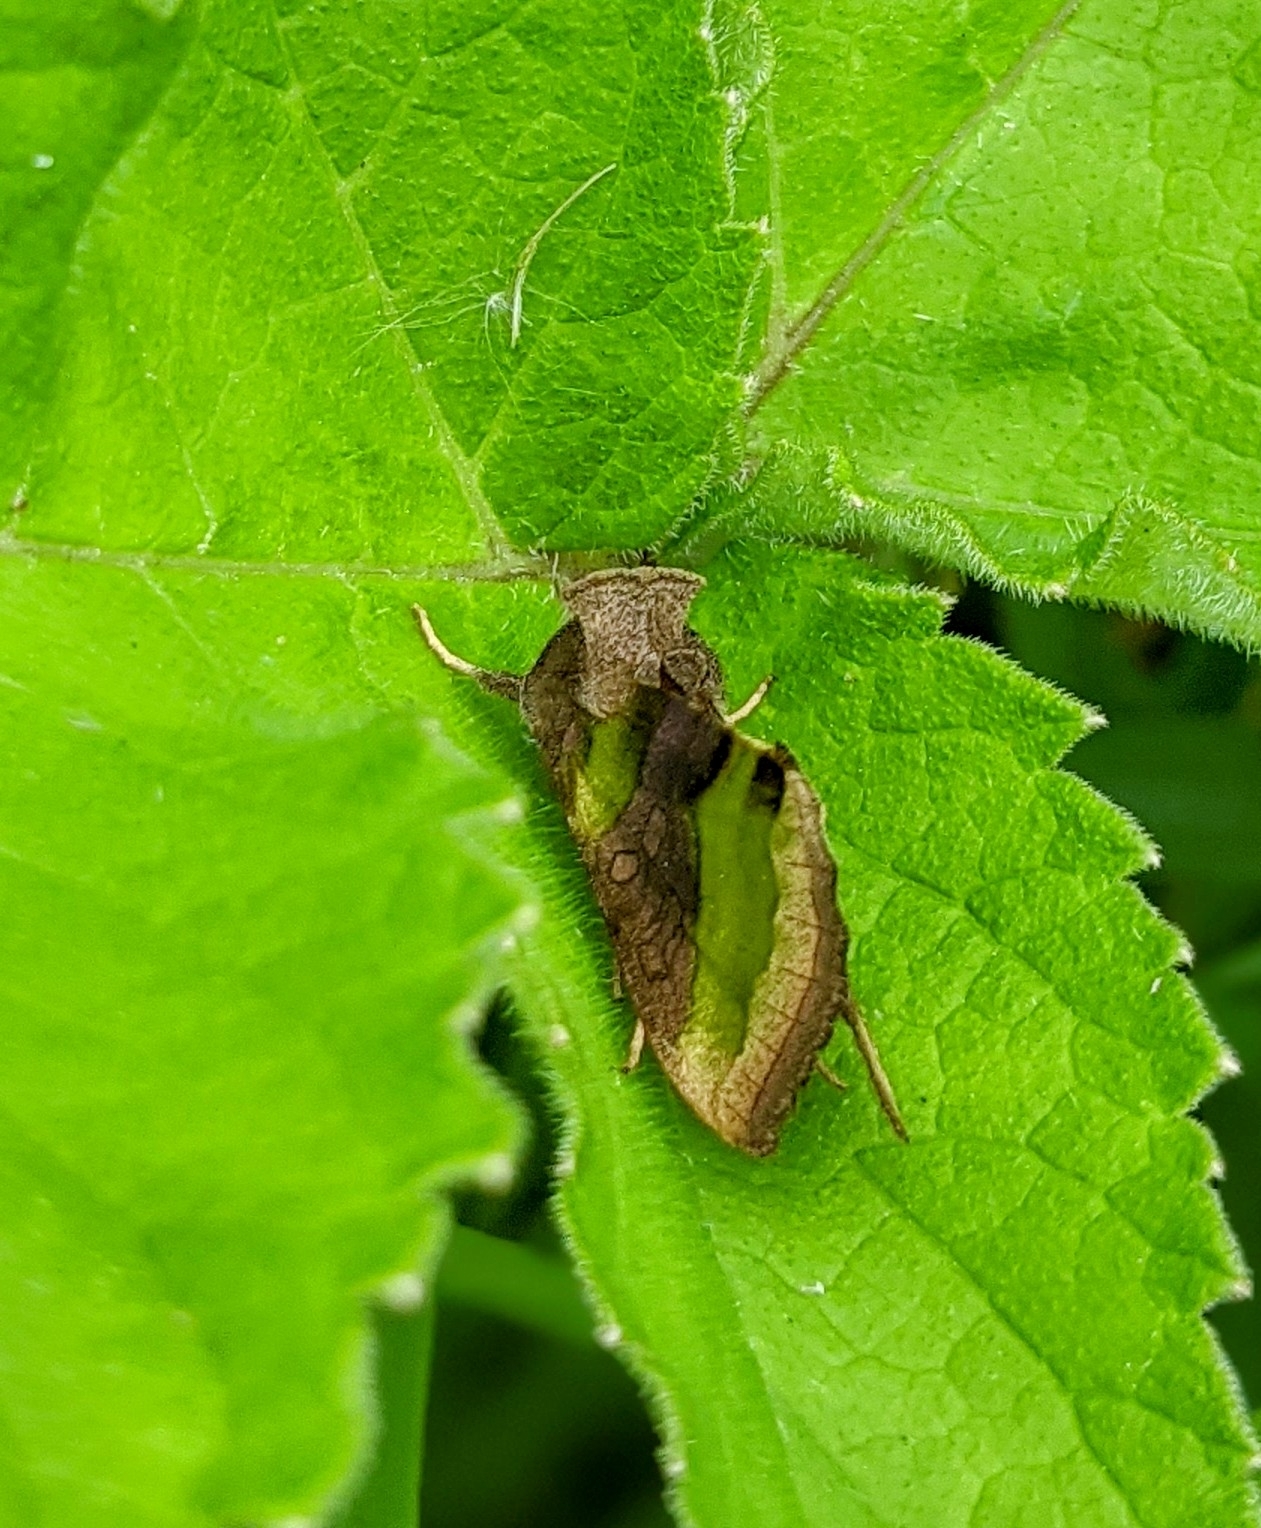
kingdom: Animalia
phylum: Arthropoda
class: Insecta
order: Lepidoptera
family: Noctuidae
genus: Diachrysia
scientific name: Diachrysia chrysitis
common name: Burnished brass
